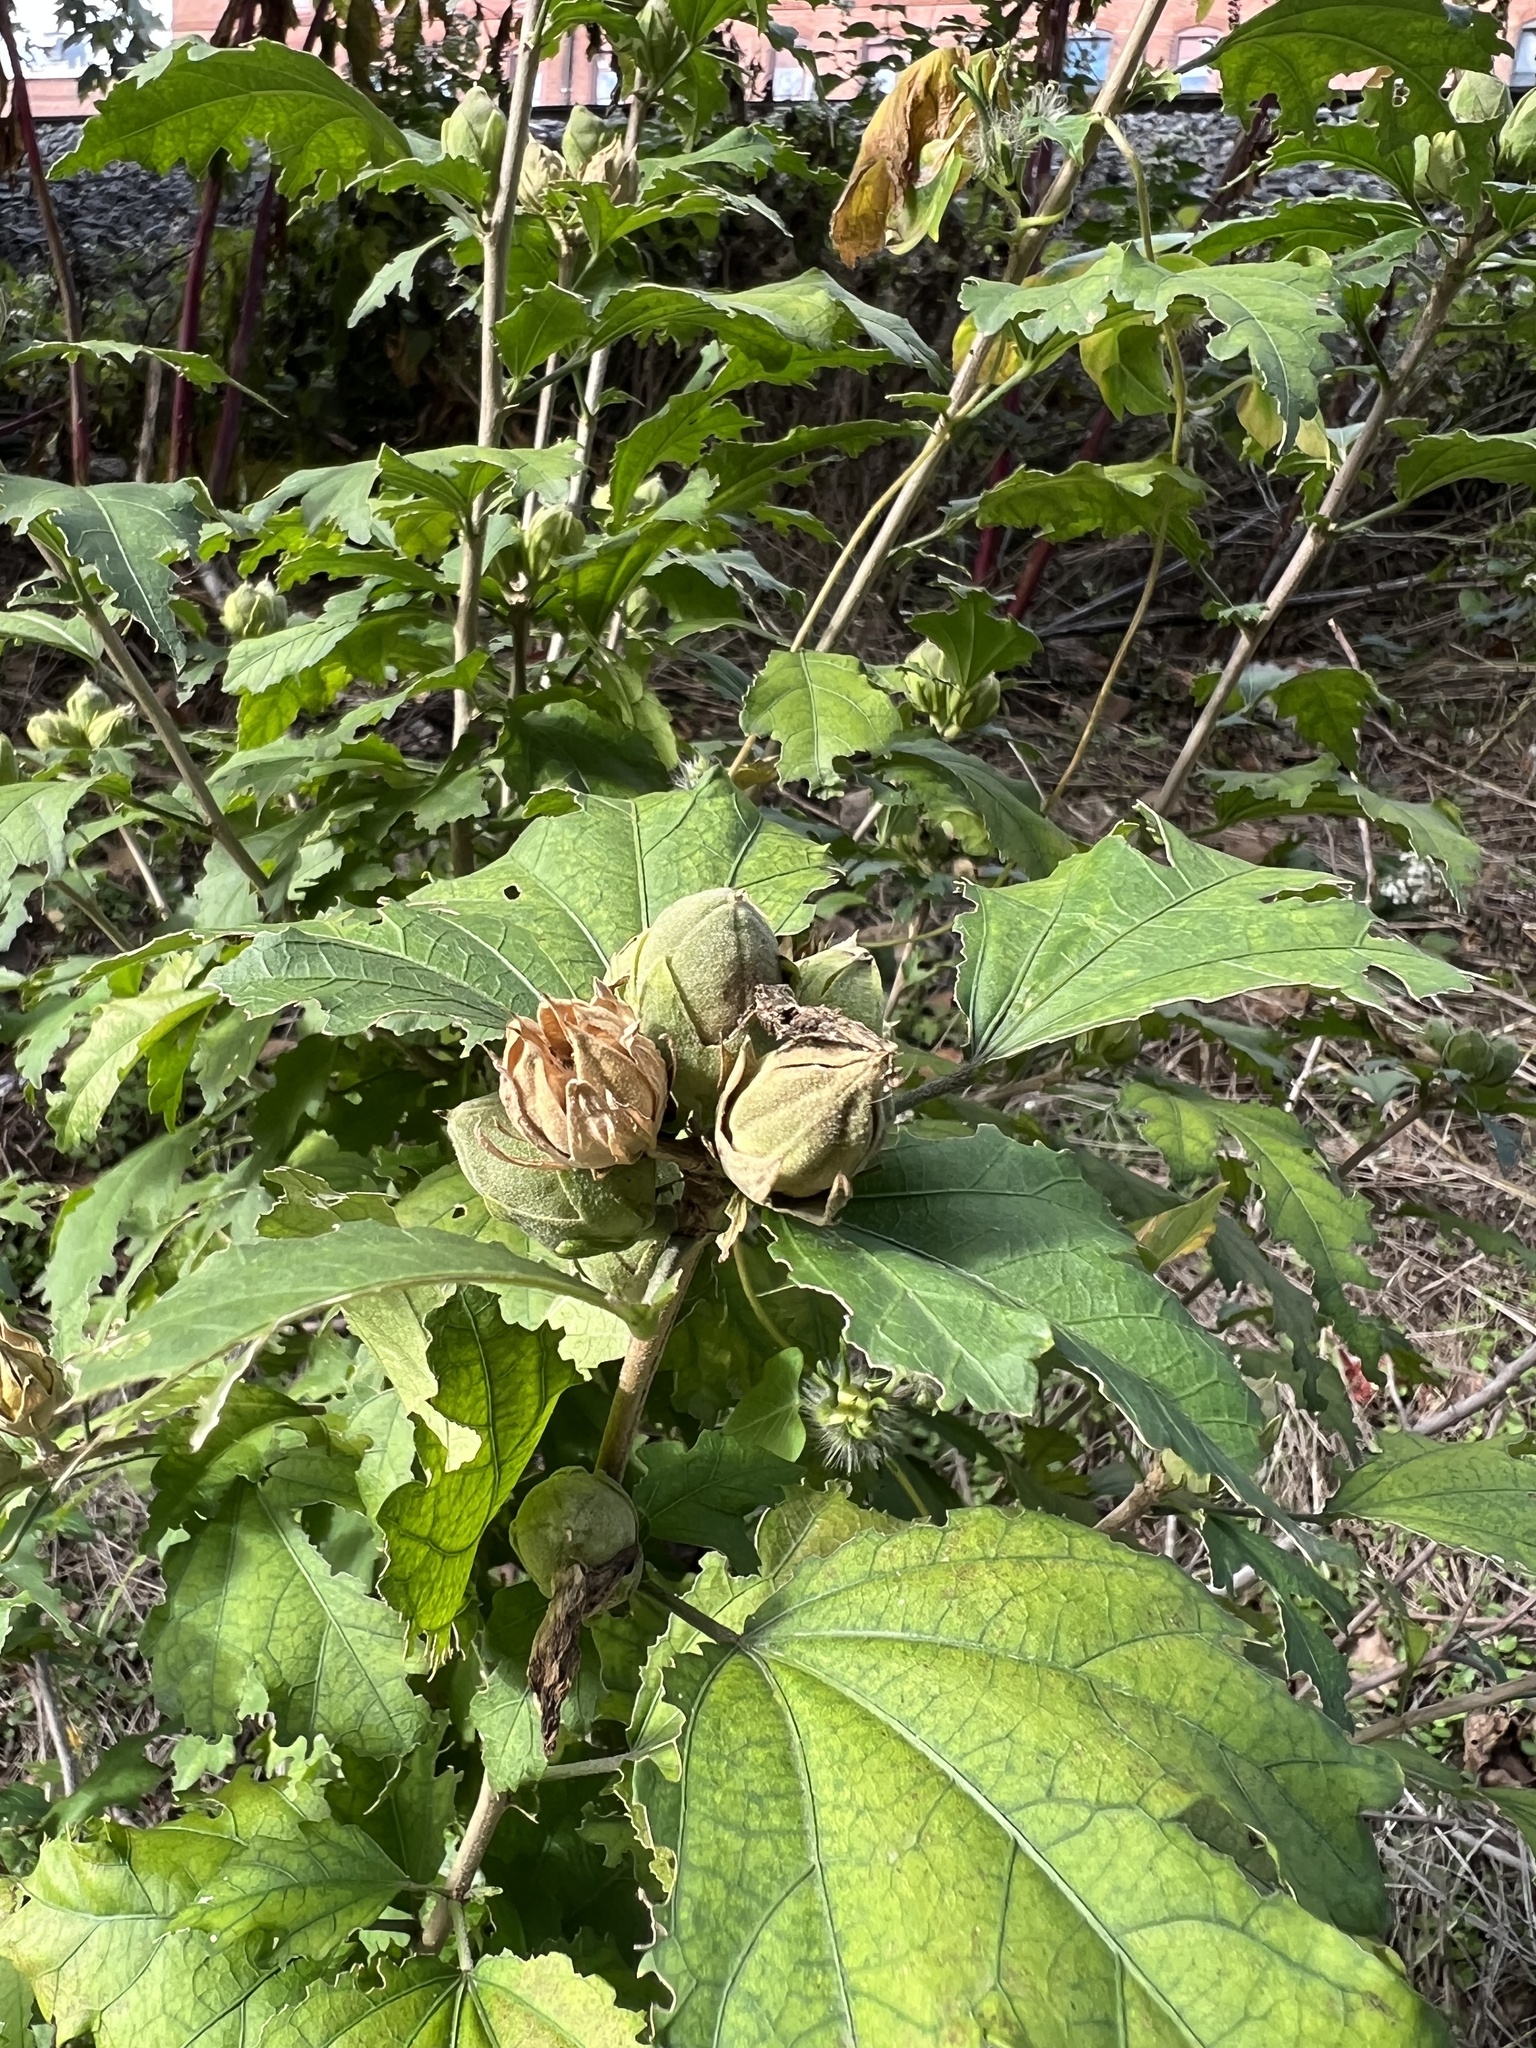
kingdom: Plantae
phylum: Tracheophyta
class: Magnoliopsida
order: Malvales
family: Malvaceae
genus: Hibiscus
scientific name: Hibiscus syriacus
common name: Syrian ketmia
